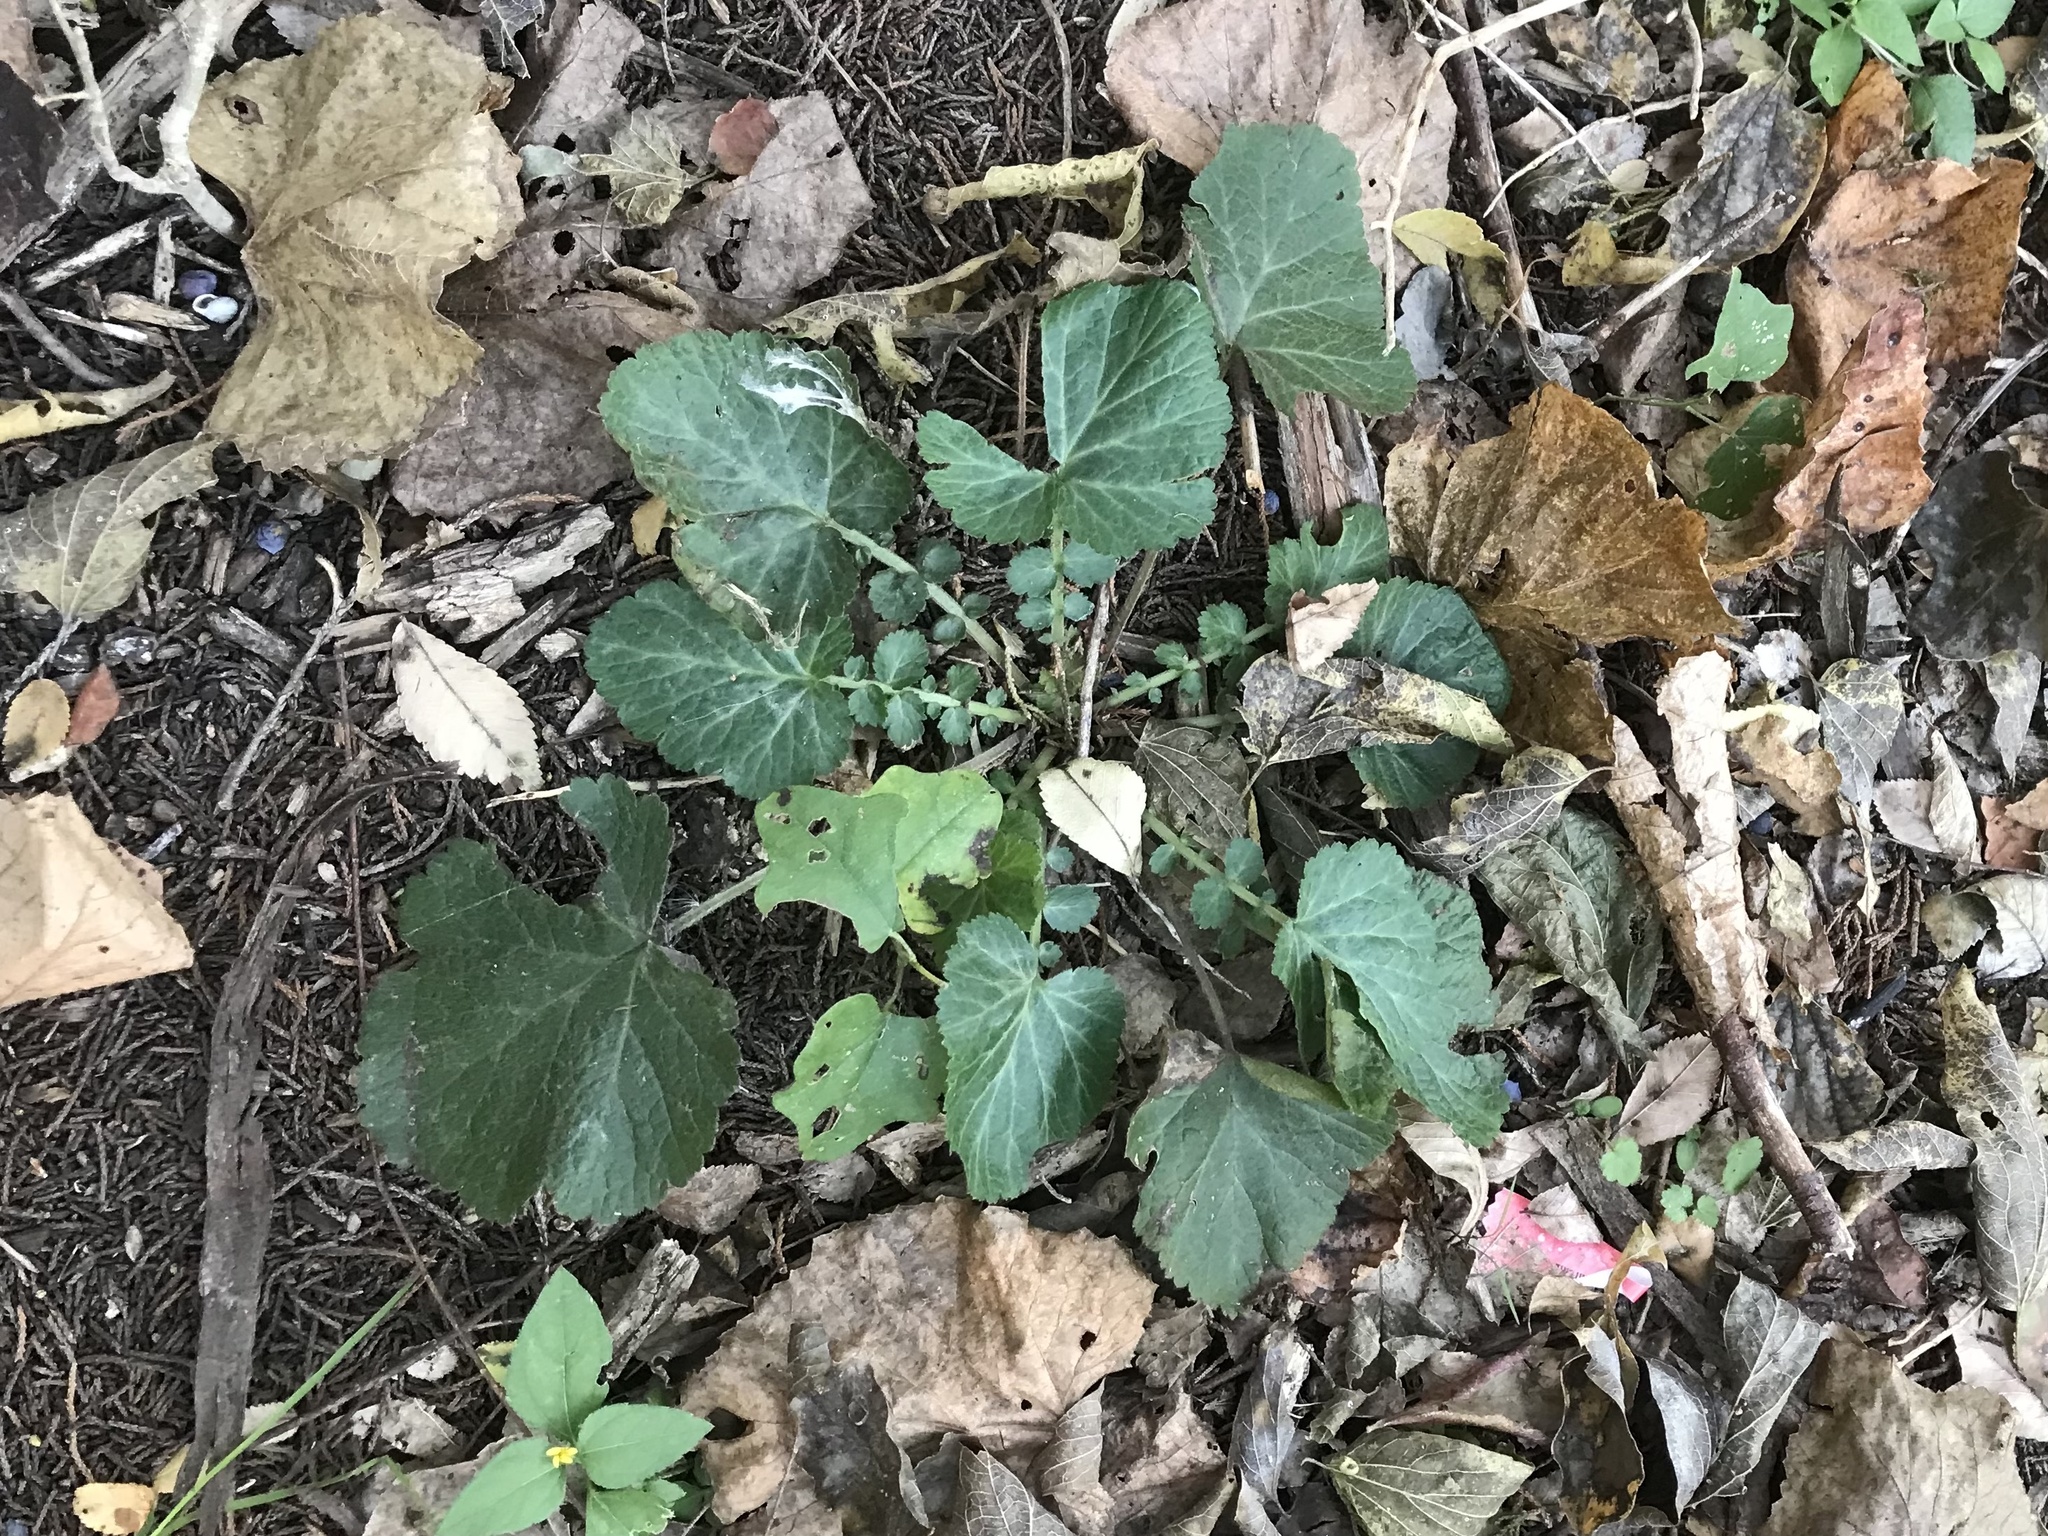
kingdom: Plantae
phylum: Tracheophyta
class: Magnoliopsida
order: Rosales
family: Rosaceae
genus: Geum
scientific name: Geum canadense
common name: White avens
